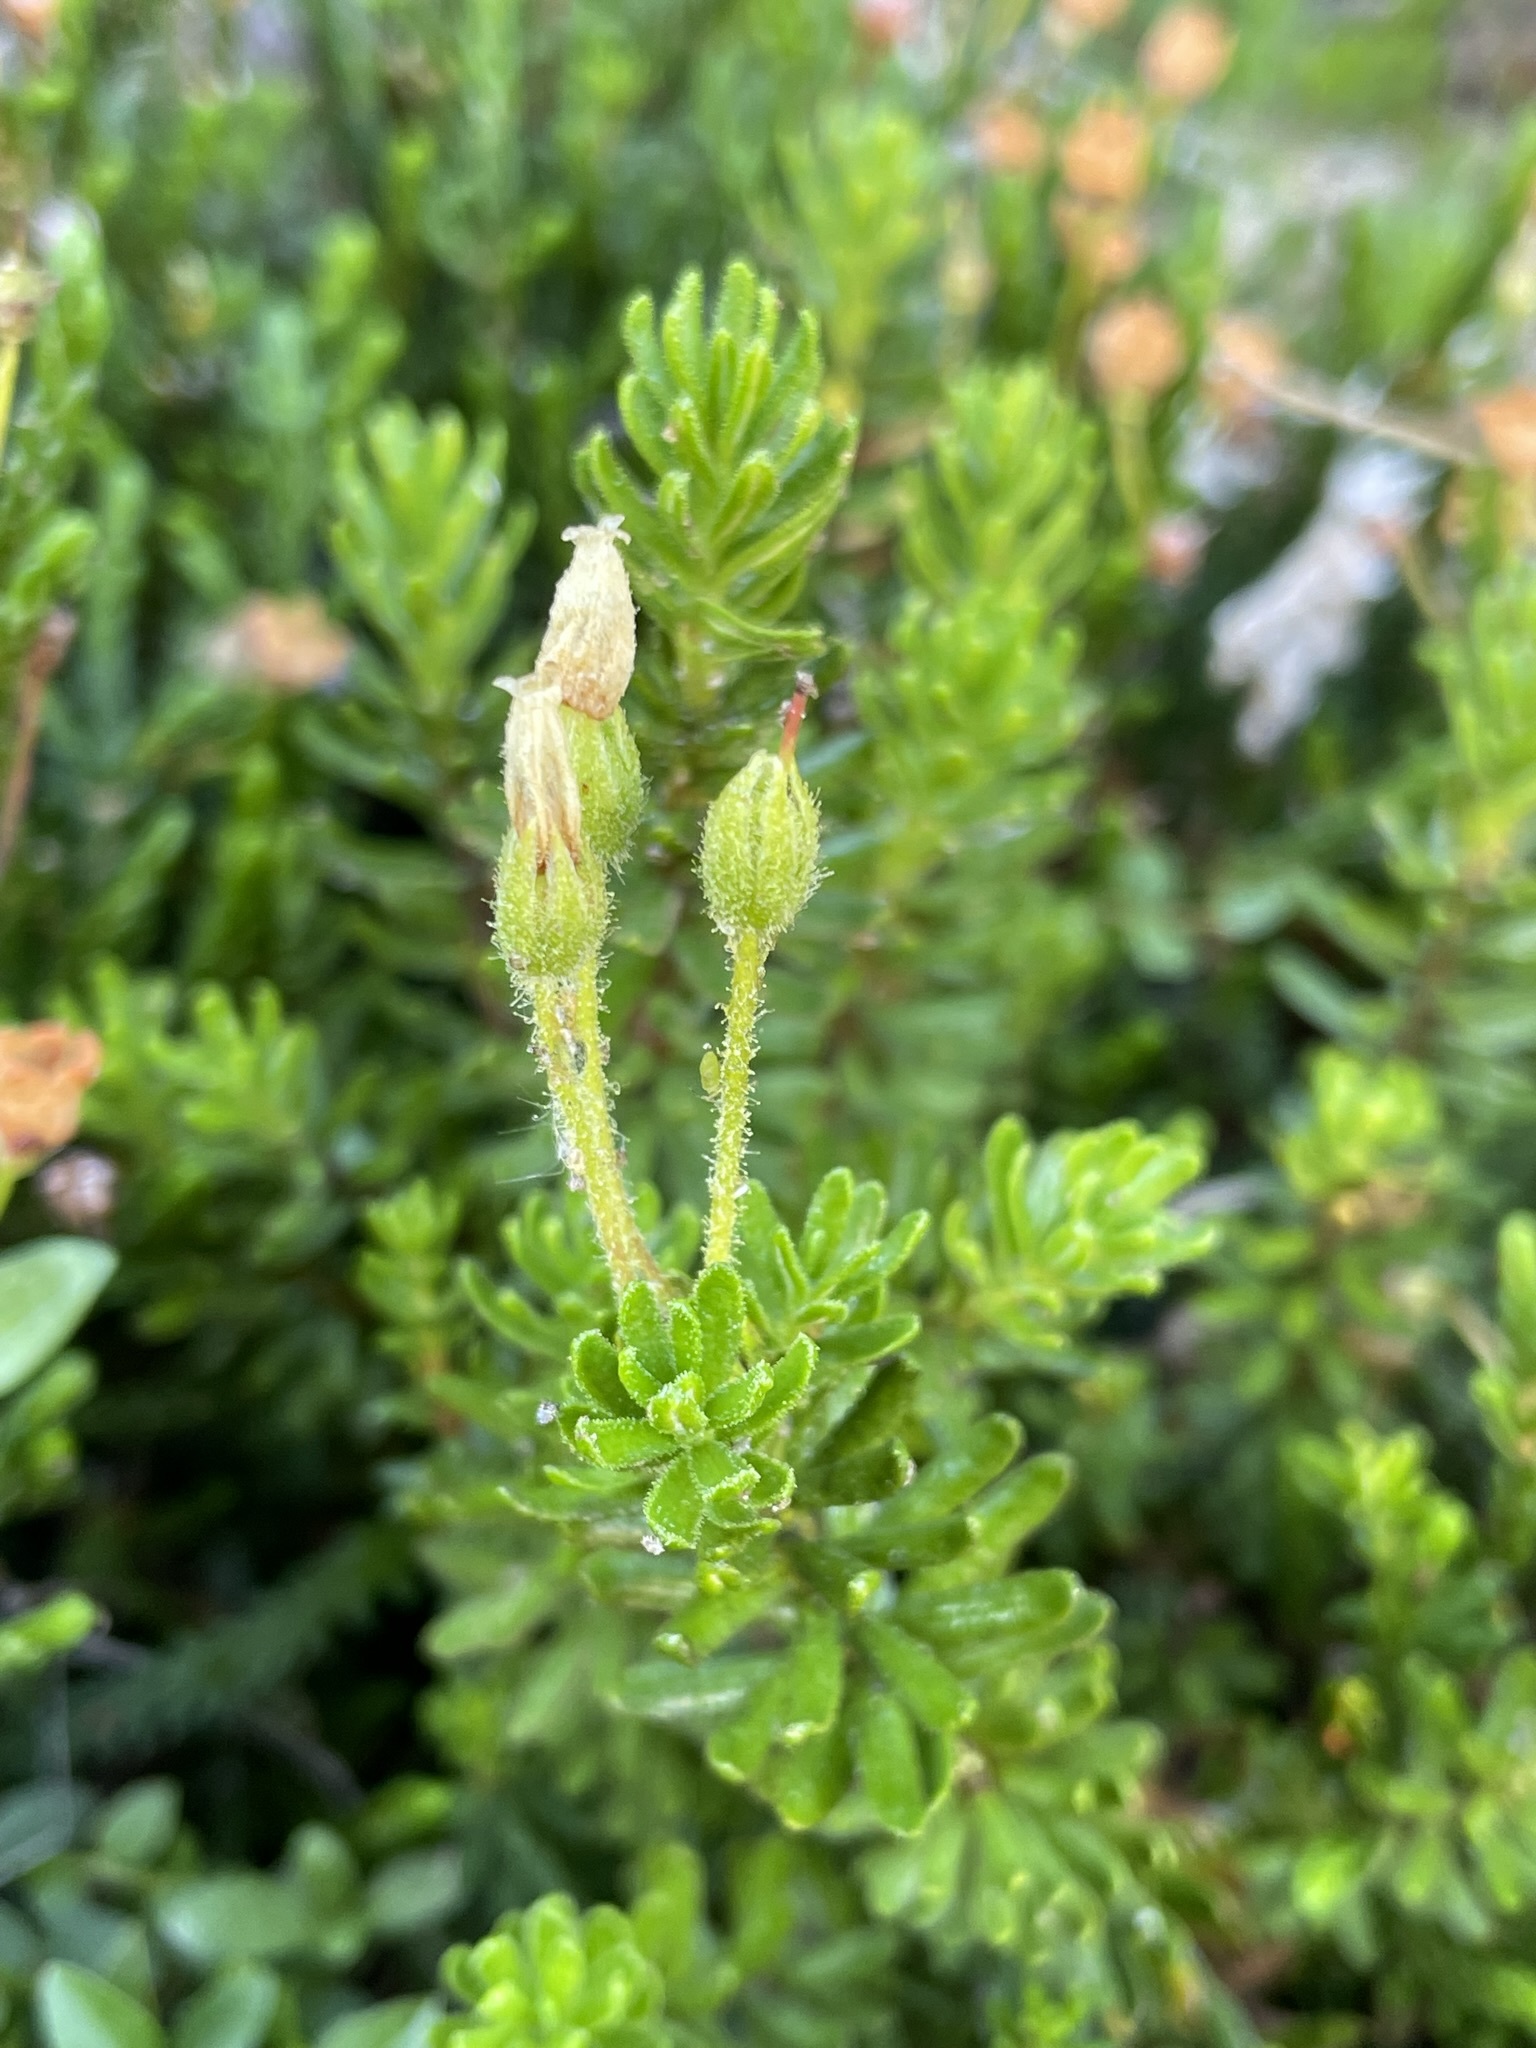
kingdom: Plantae
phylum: Tracheophyta
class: Magnoliopsida
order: Ericales
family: Ericaceae
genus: Phyllodoce
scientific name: Phyllodoce glanduliflora
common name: Cream mountain heather
